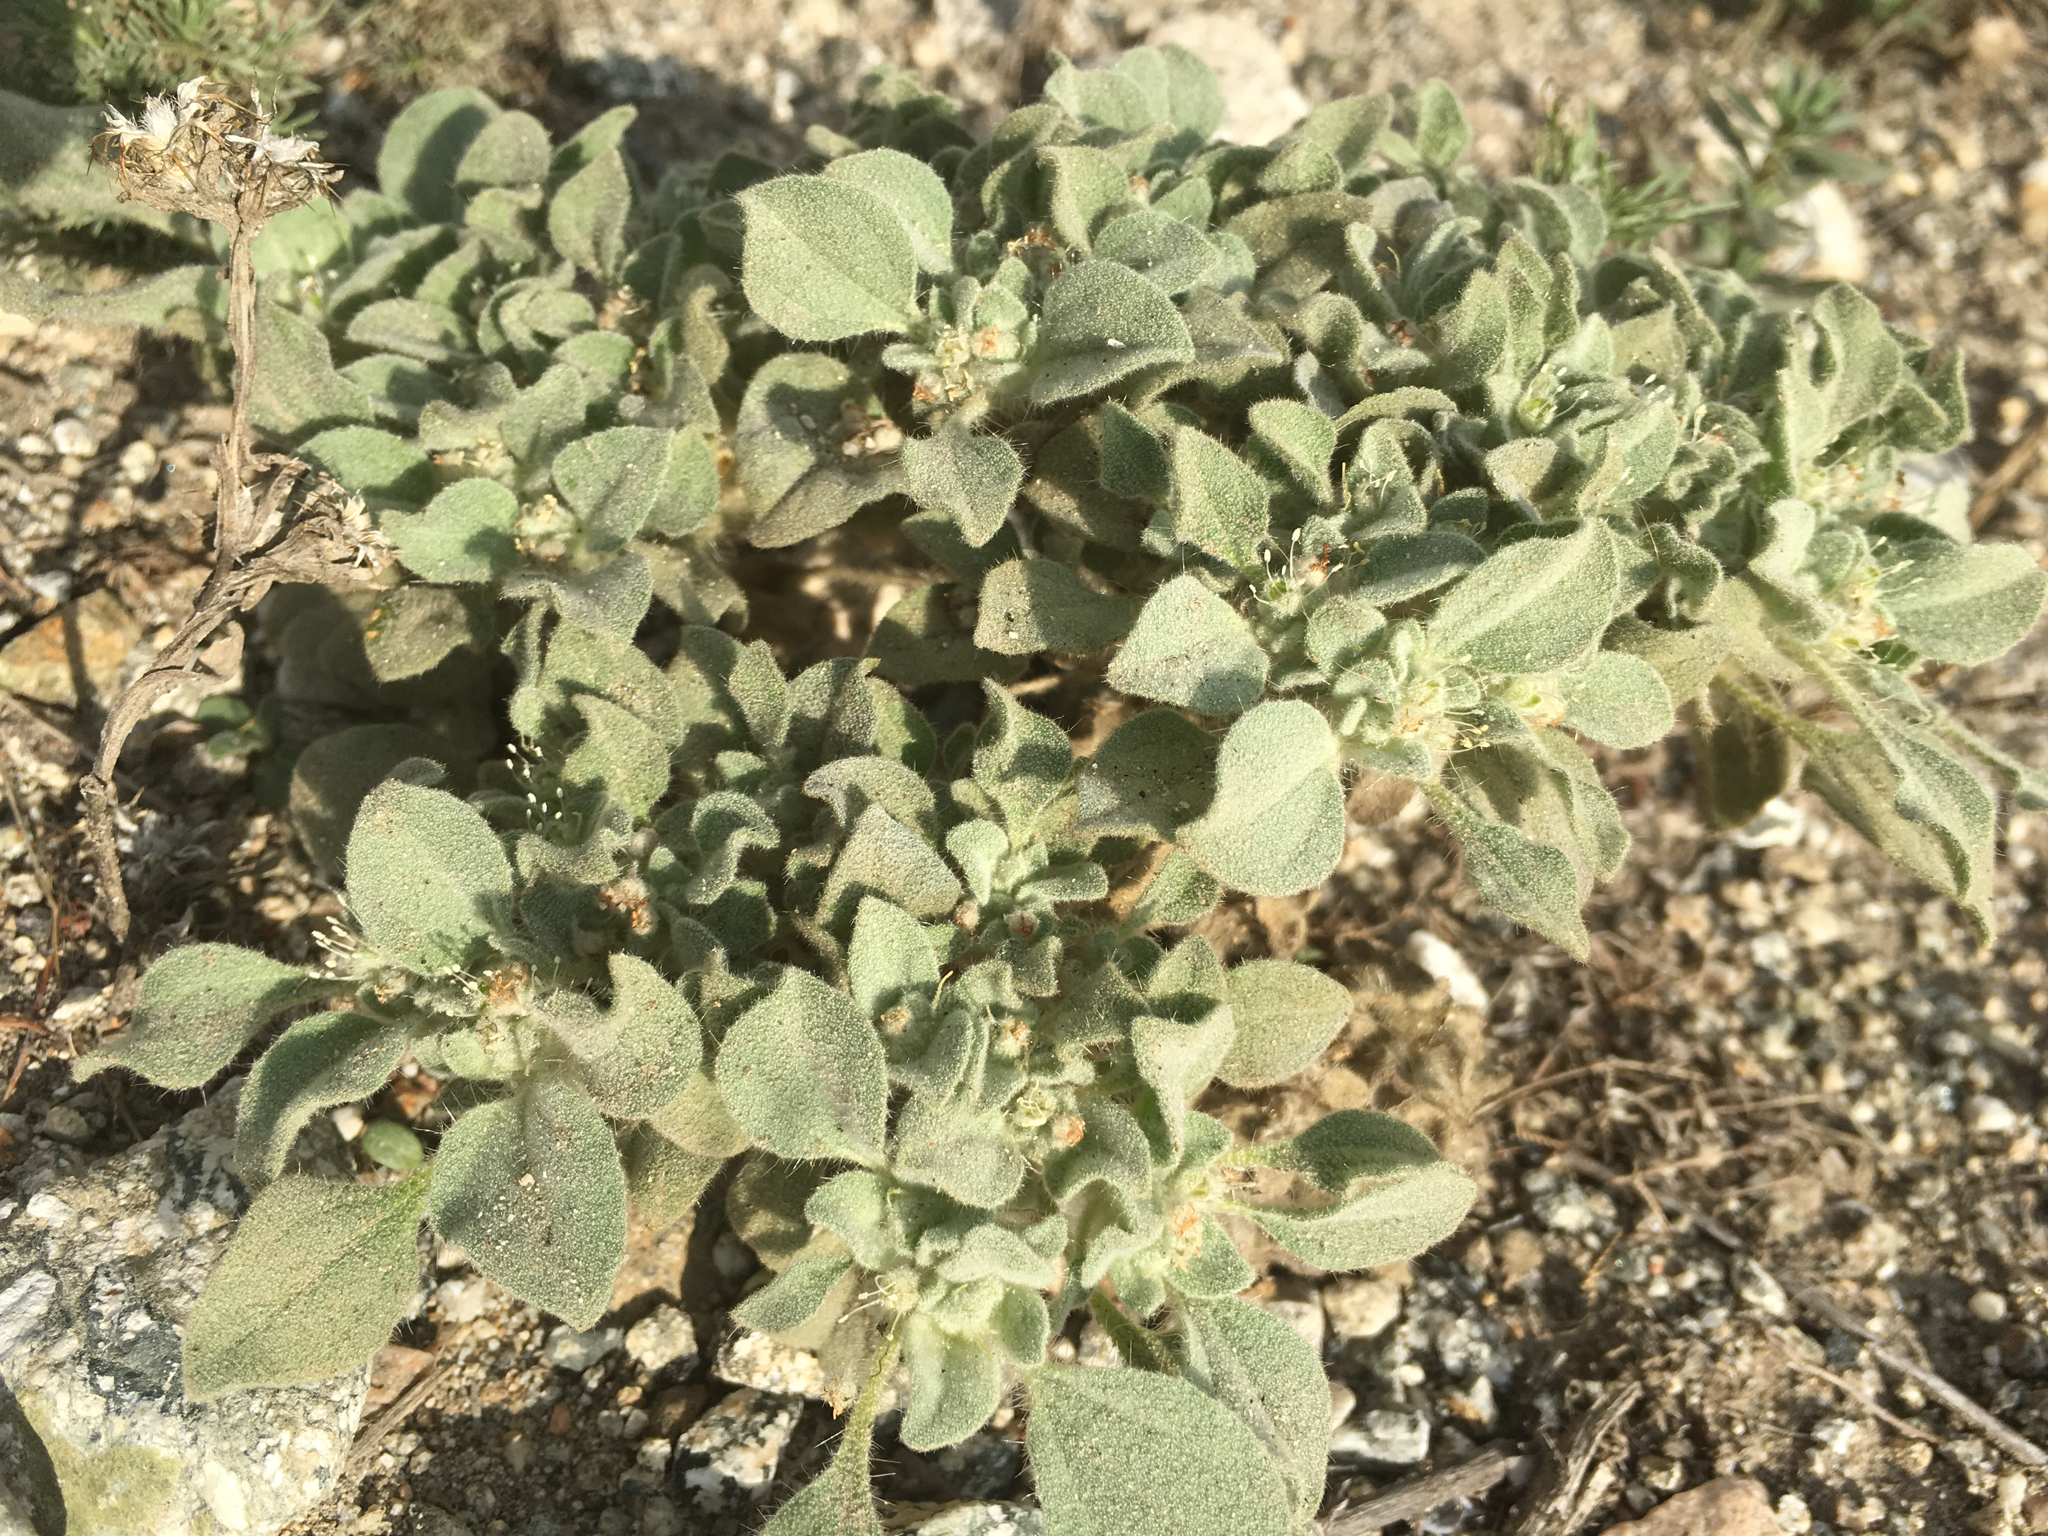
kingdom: Plantae
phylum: Tracheophyta
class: Magnoliopsida
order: Malpighiales
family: Euphorbiaceae
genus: Croton
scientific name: Croton setiger
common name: Dove weed
